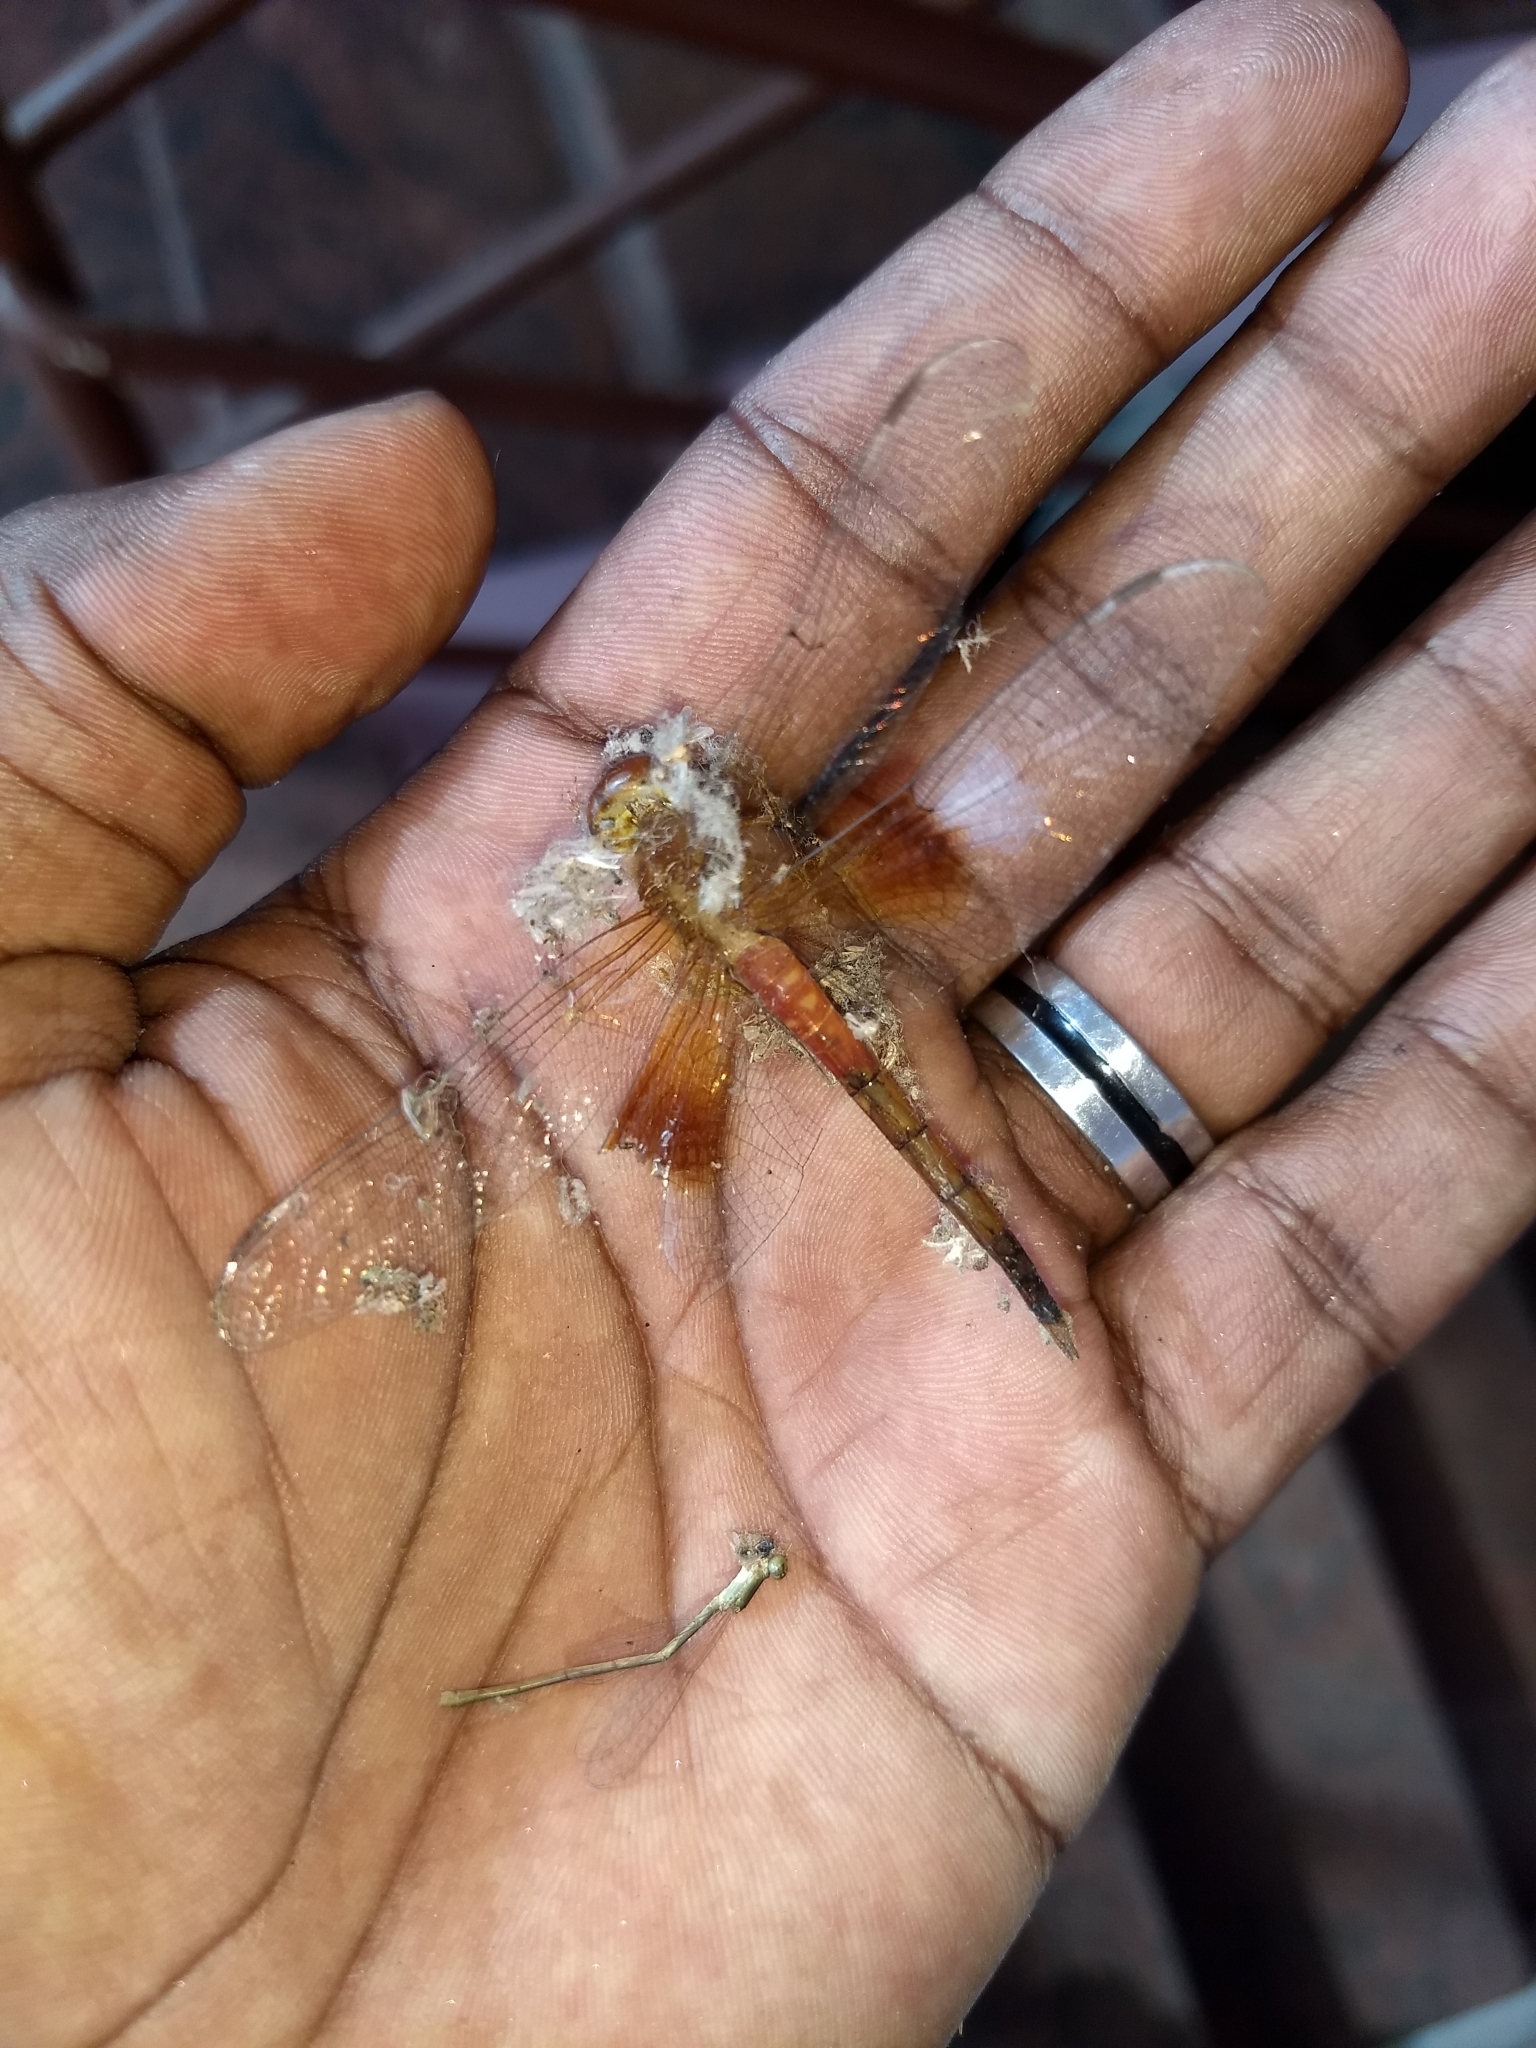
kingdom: Animalia
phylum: Arthropoda
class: Insecta
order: Odonata
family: Libellulidae
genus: Tholymis
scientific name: Tholymis tillarga
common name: Coral-tailed cloud wing
